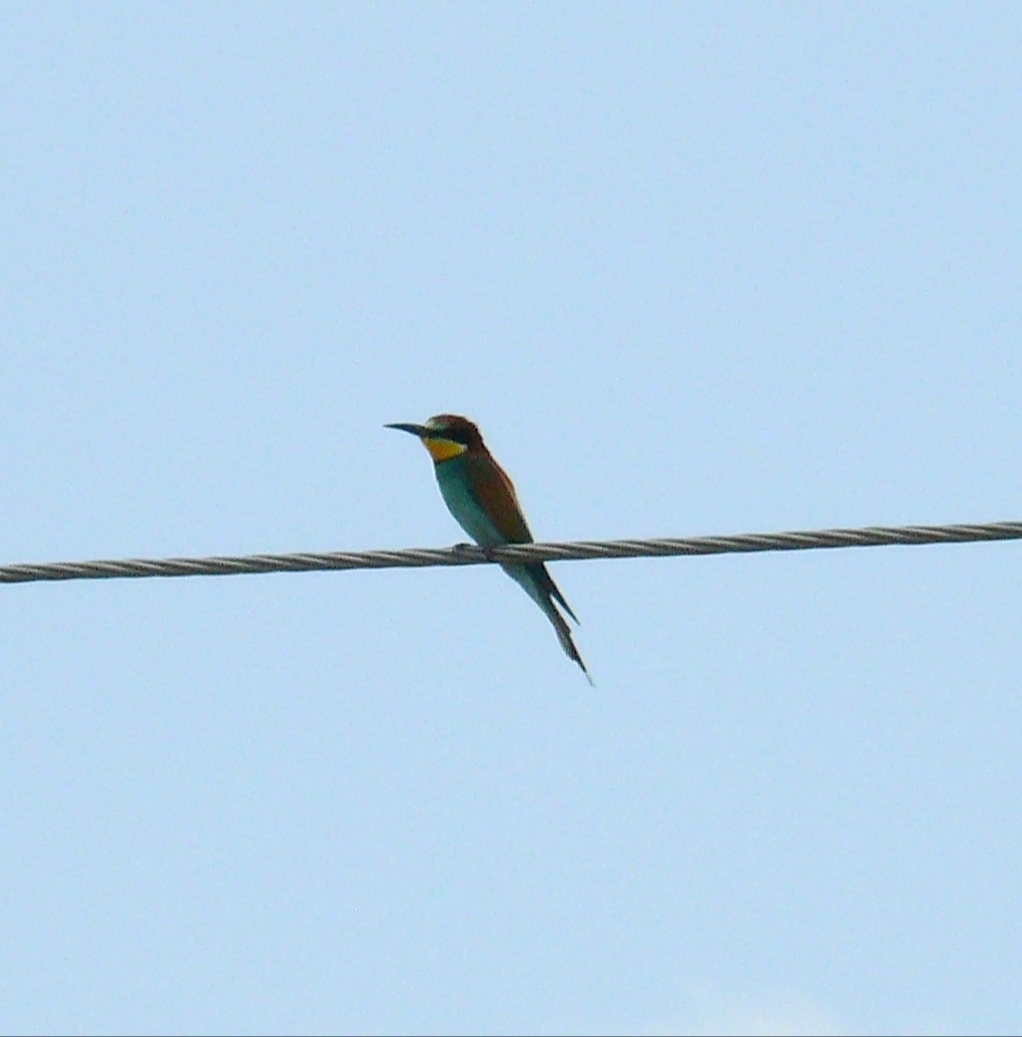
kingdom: Animalia
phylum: Chordata
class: Aves
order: Coraciiformes
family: Meropidae
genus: Merops
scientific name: Merops apiaster
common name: European bee-eater
